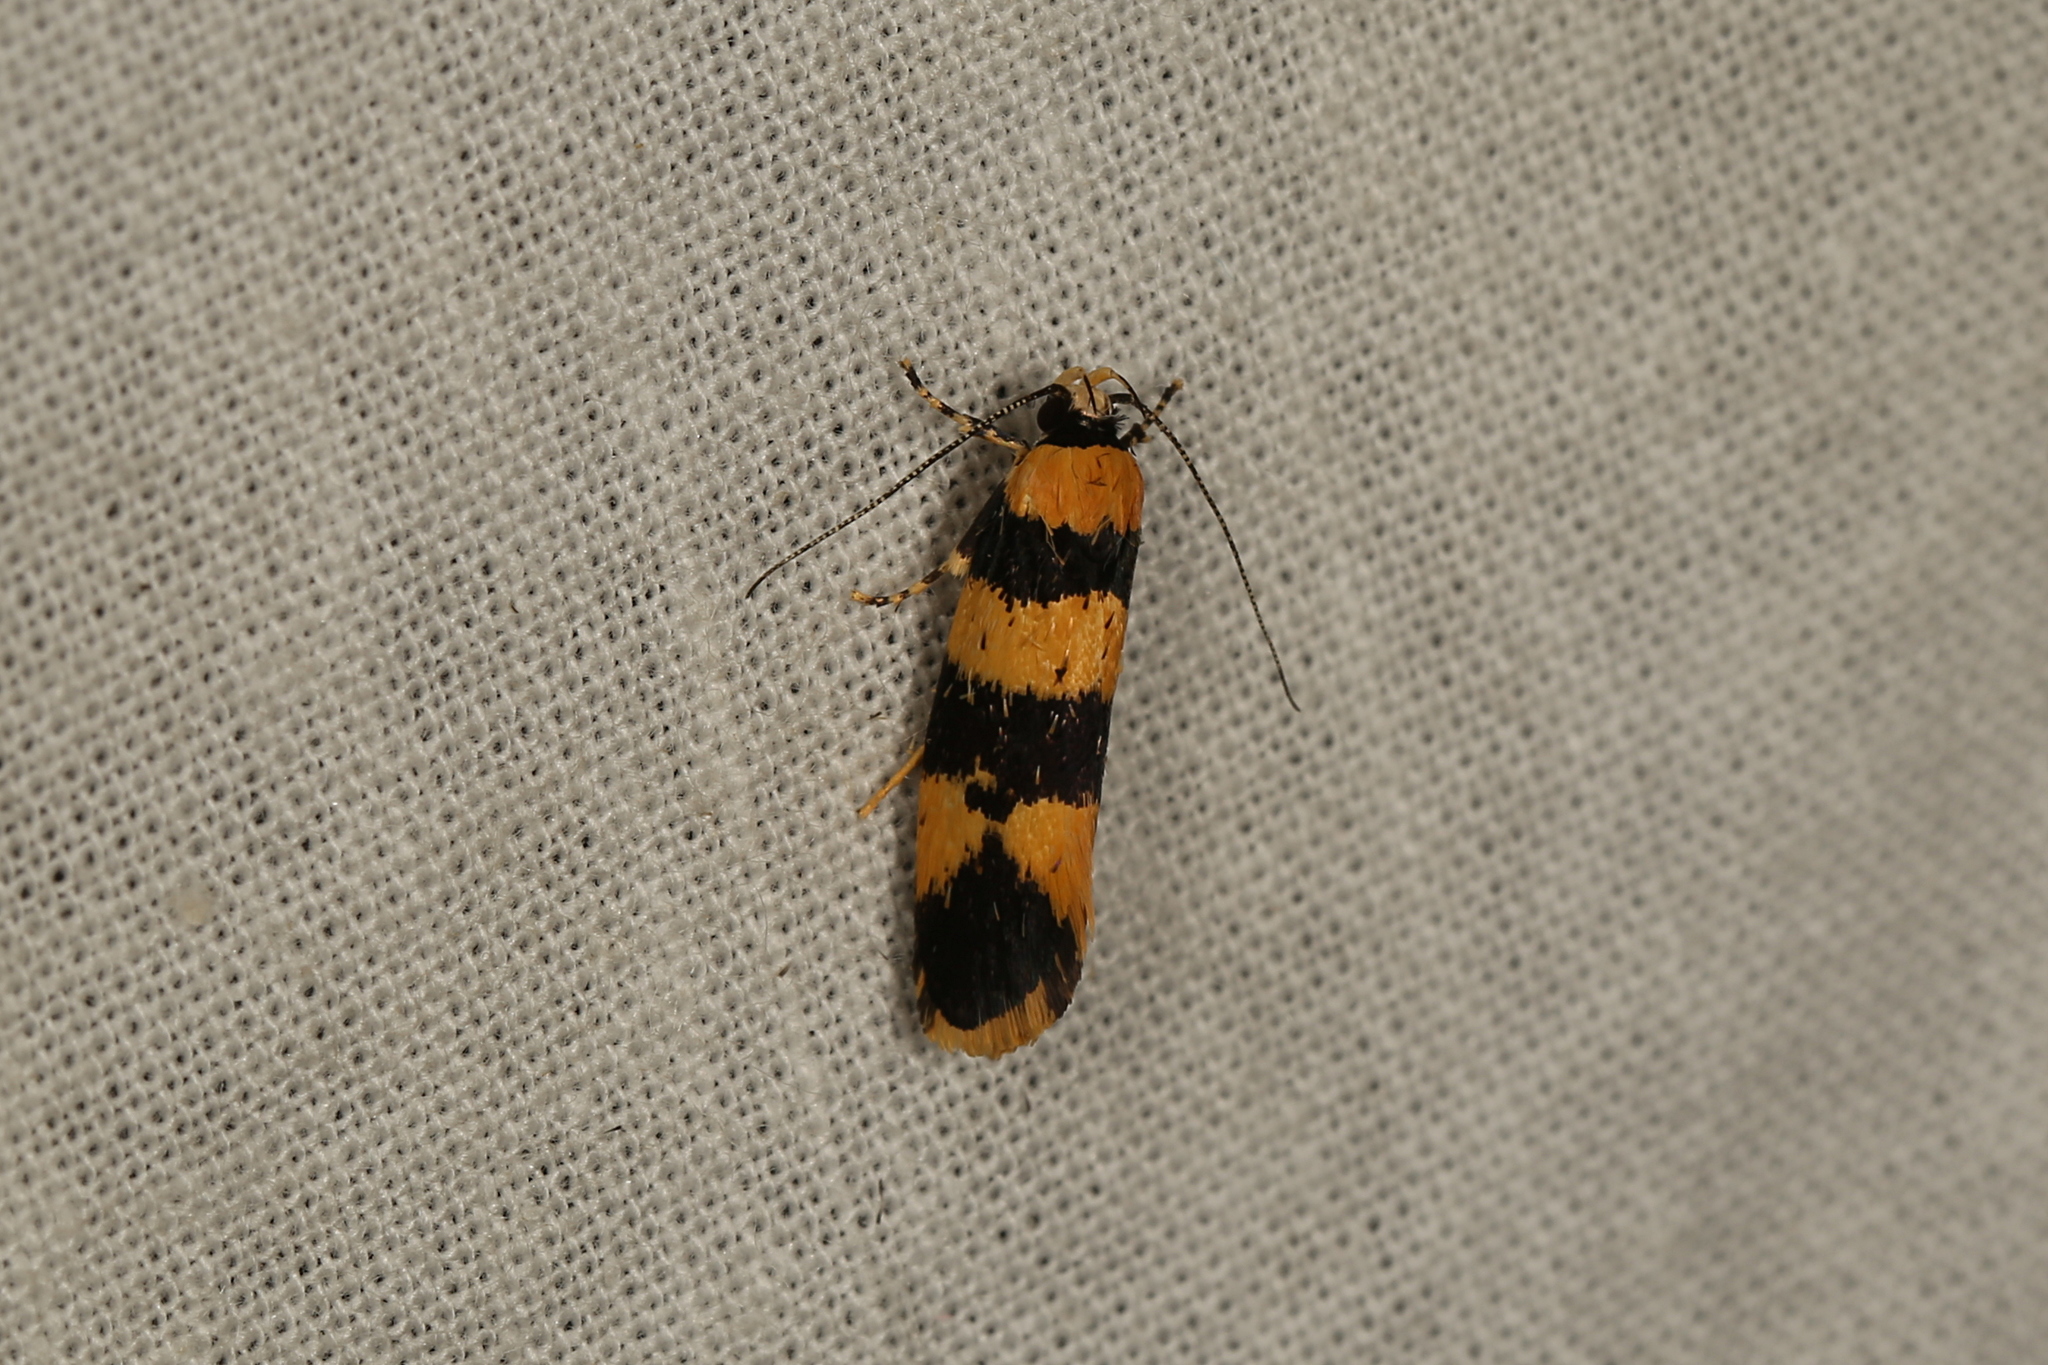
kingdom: Animalia
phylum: Arthropoda
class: Insecta
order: Lepidoptera
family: Xyloryctidae
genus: Telecrates
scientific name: Telecrates melanochrysa
